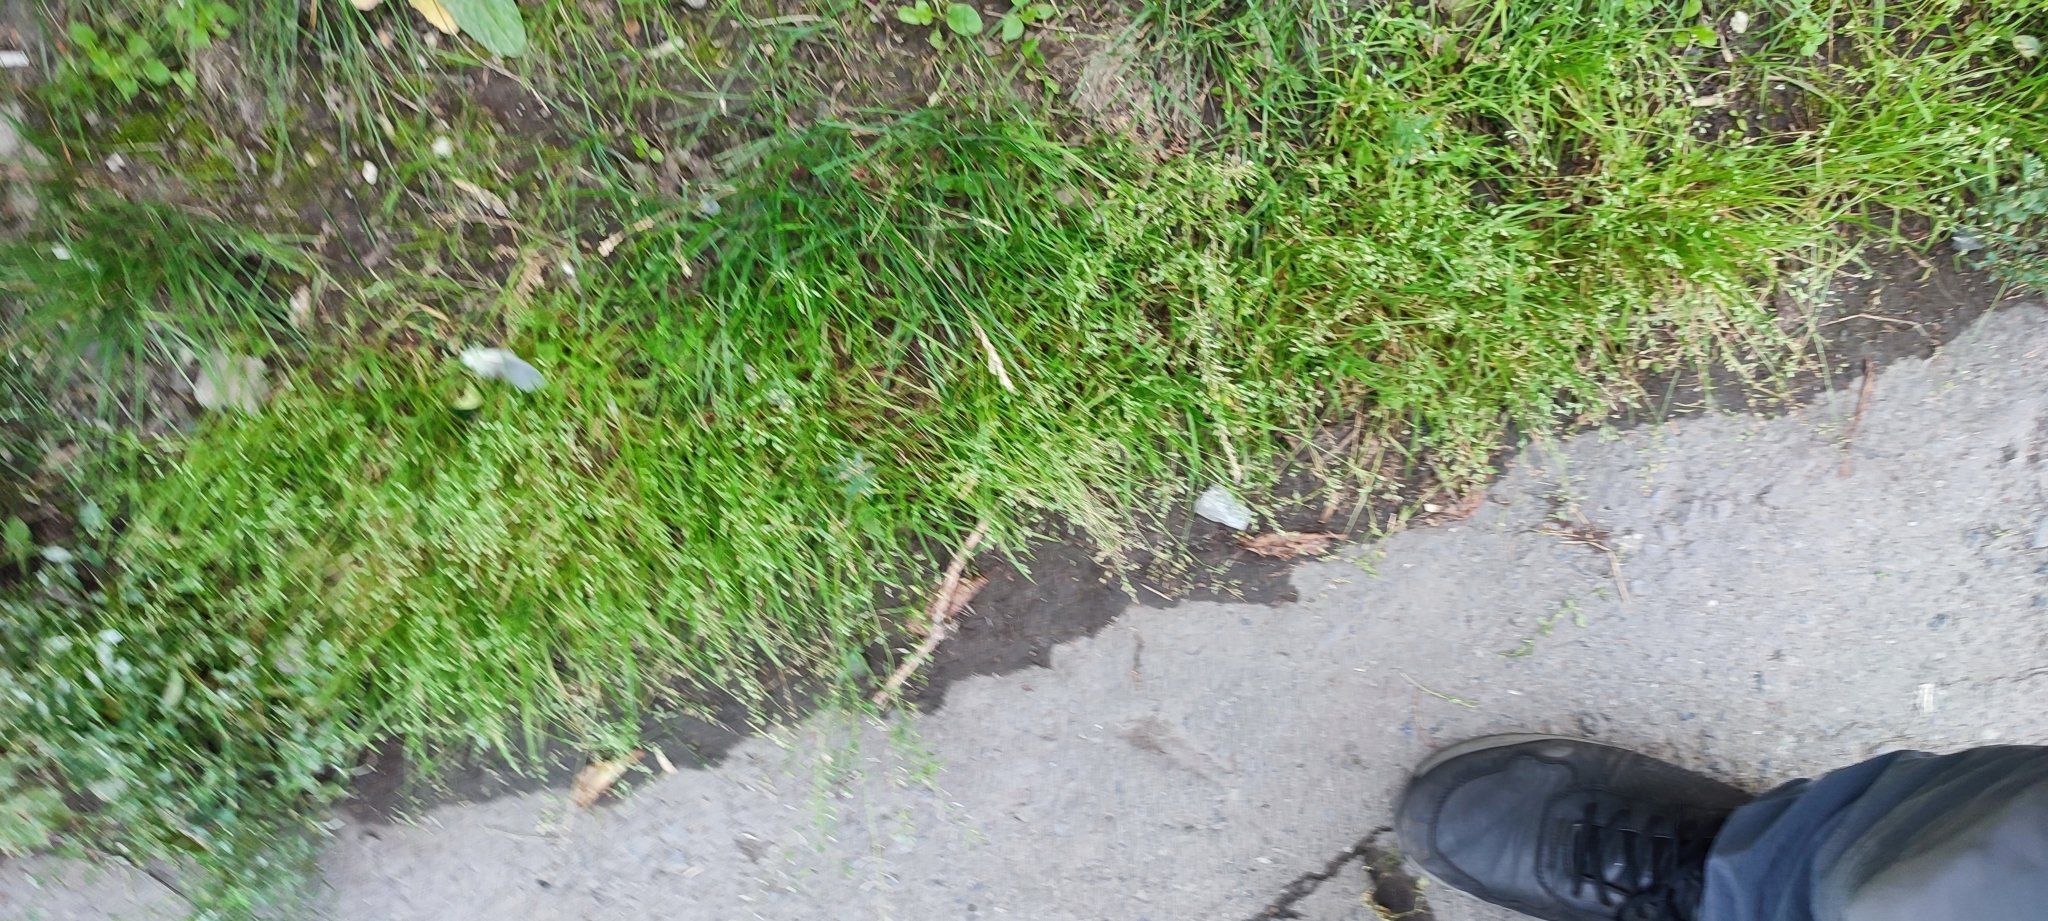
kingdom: Plantae
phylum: Tracheophyta
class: Liliopsida
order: Poales
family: Poaceae
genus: Poa
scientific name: Poa annua
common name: Annual bluegrass
